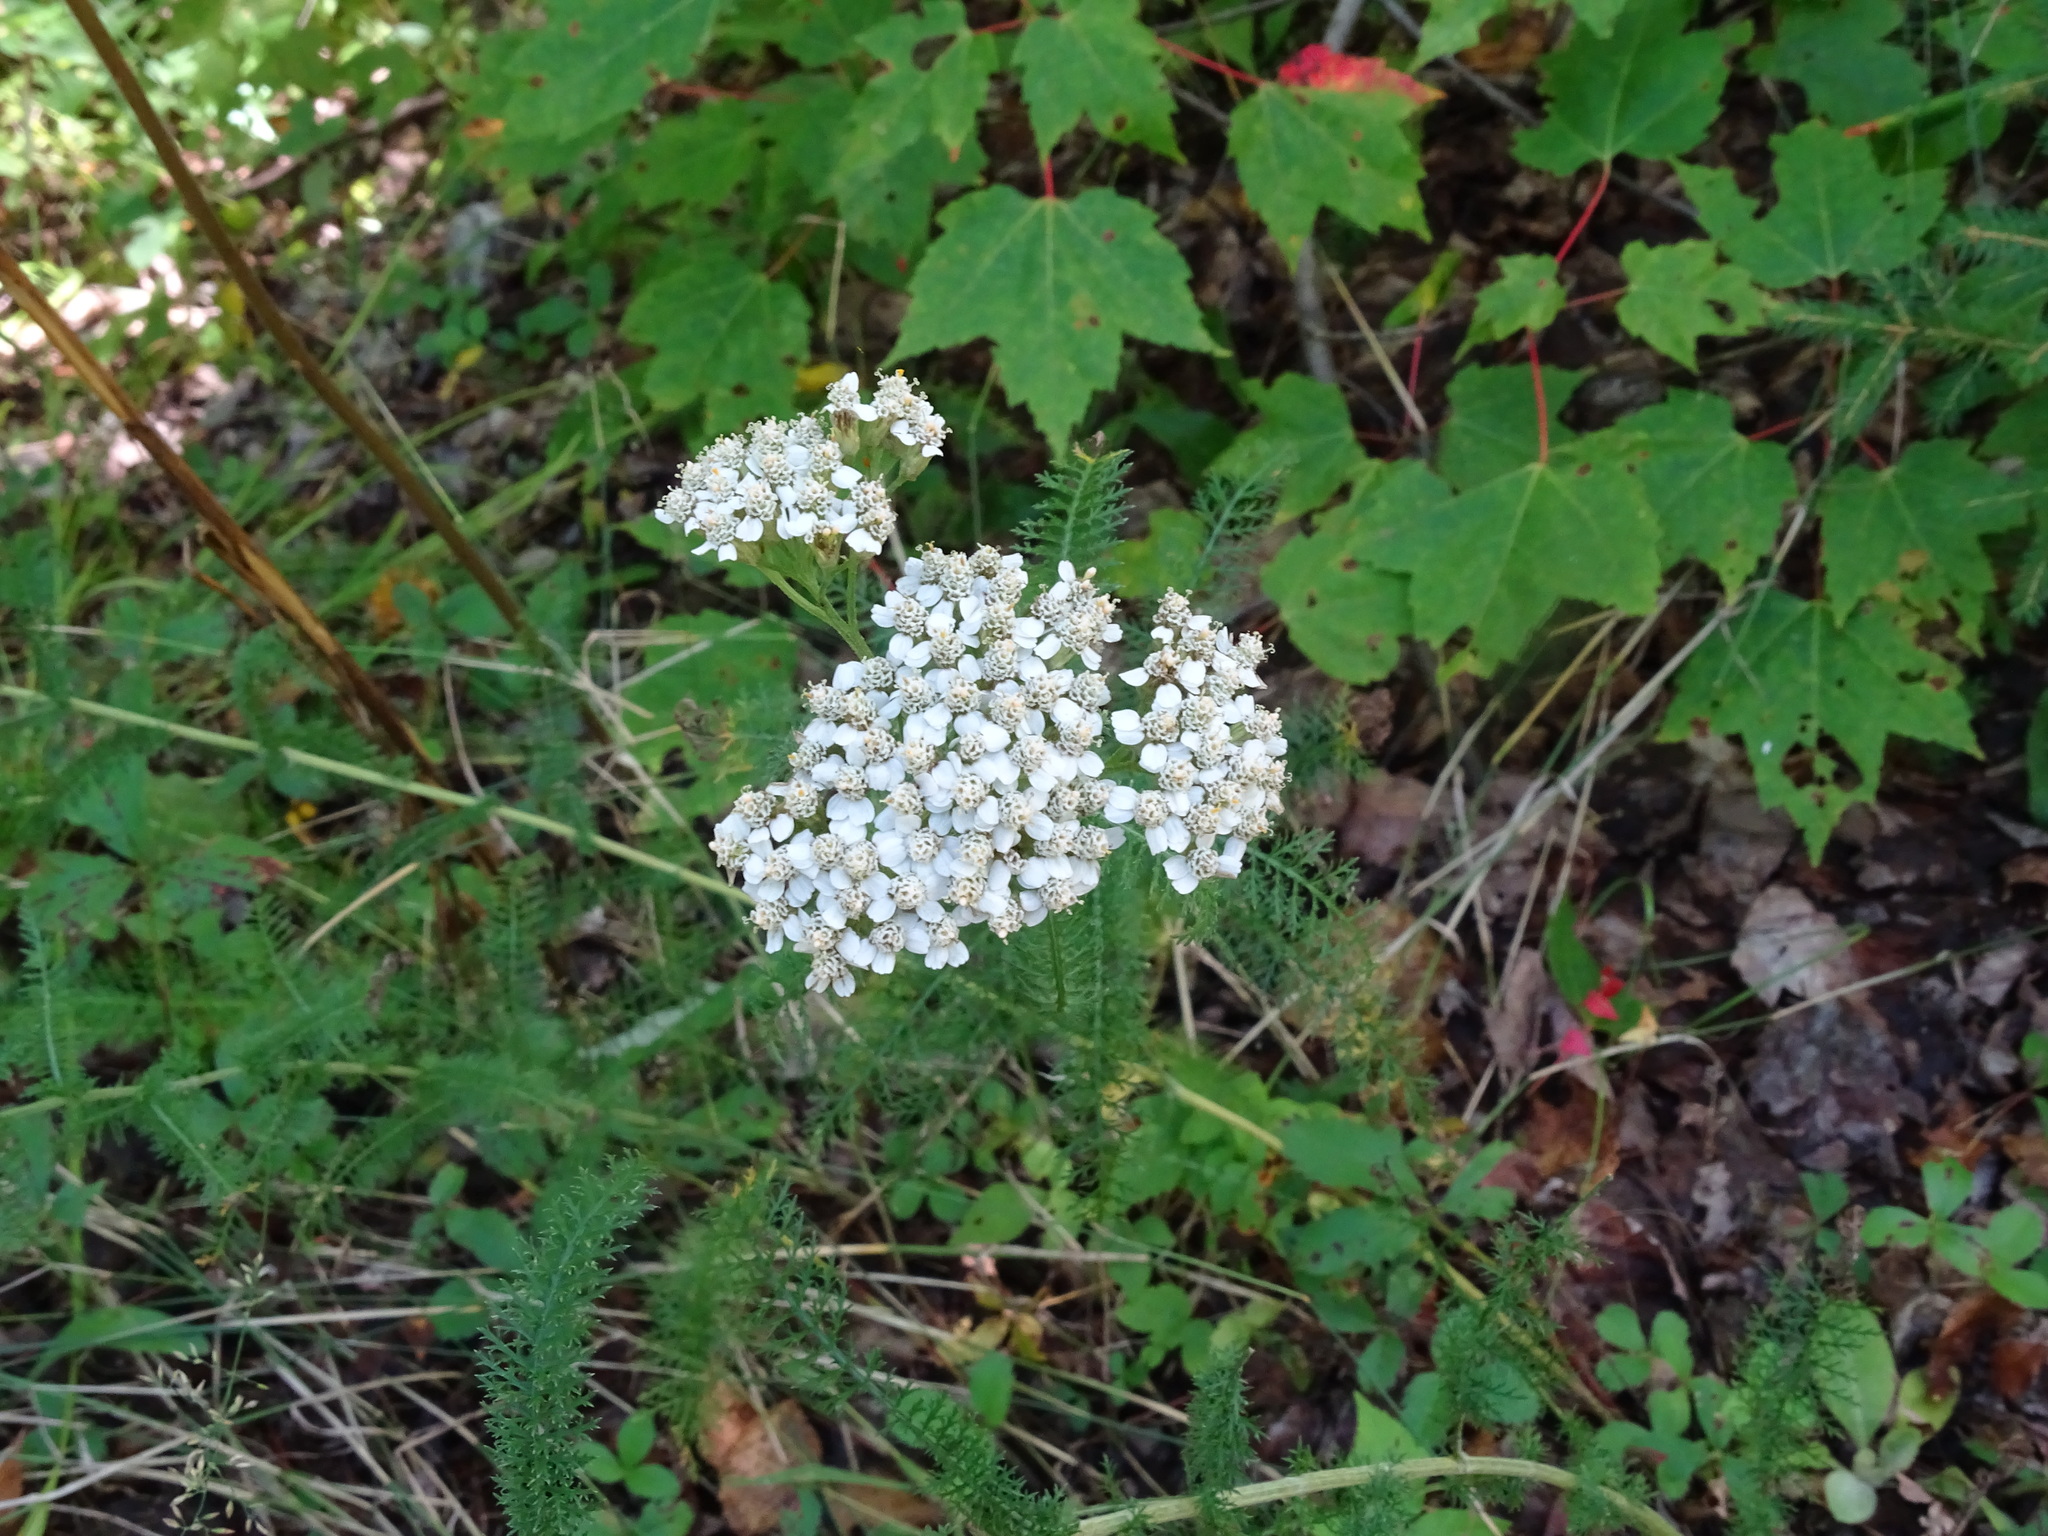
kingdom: Plantae
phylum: Tracheophyta
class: Magnoliopsida
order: Asterales
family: Asteraceae
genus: Achillea
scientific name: Achillea millefolium
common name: Yarrow
